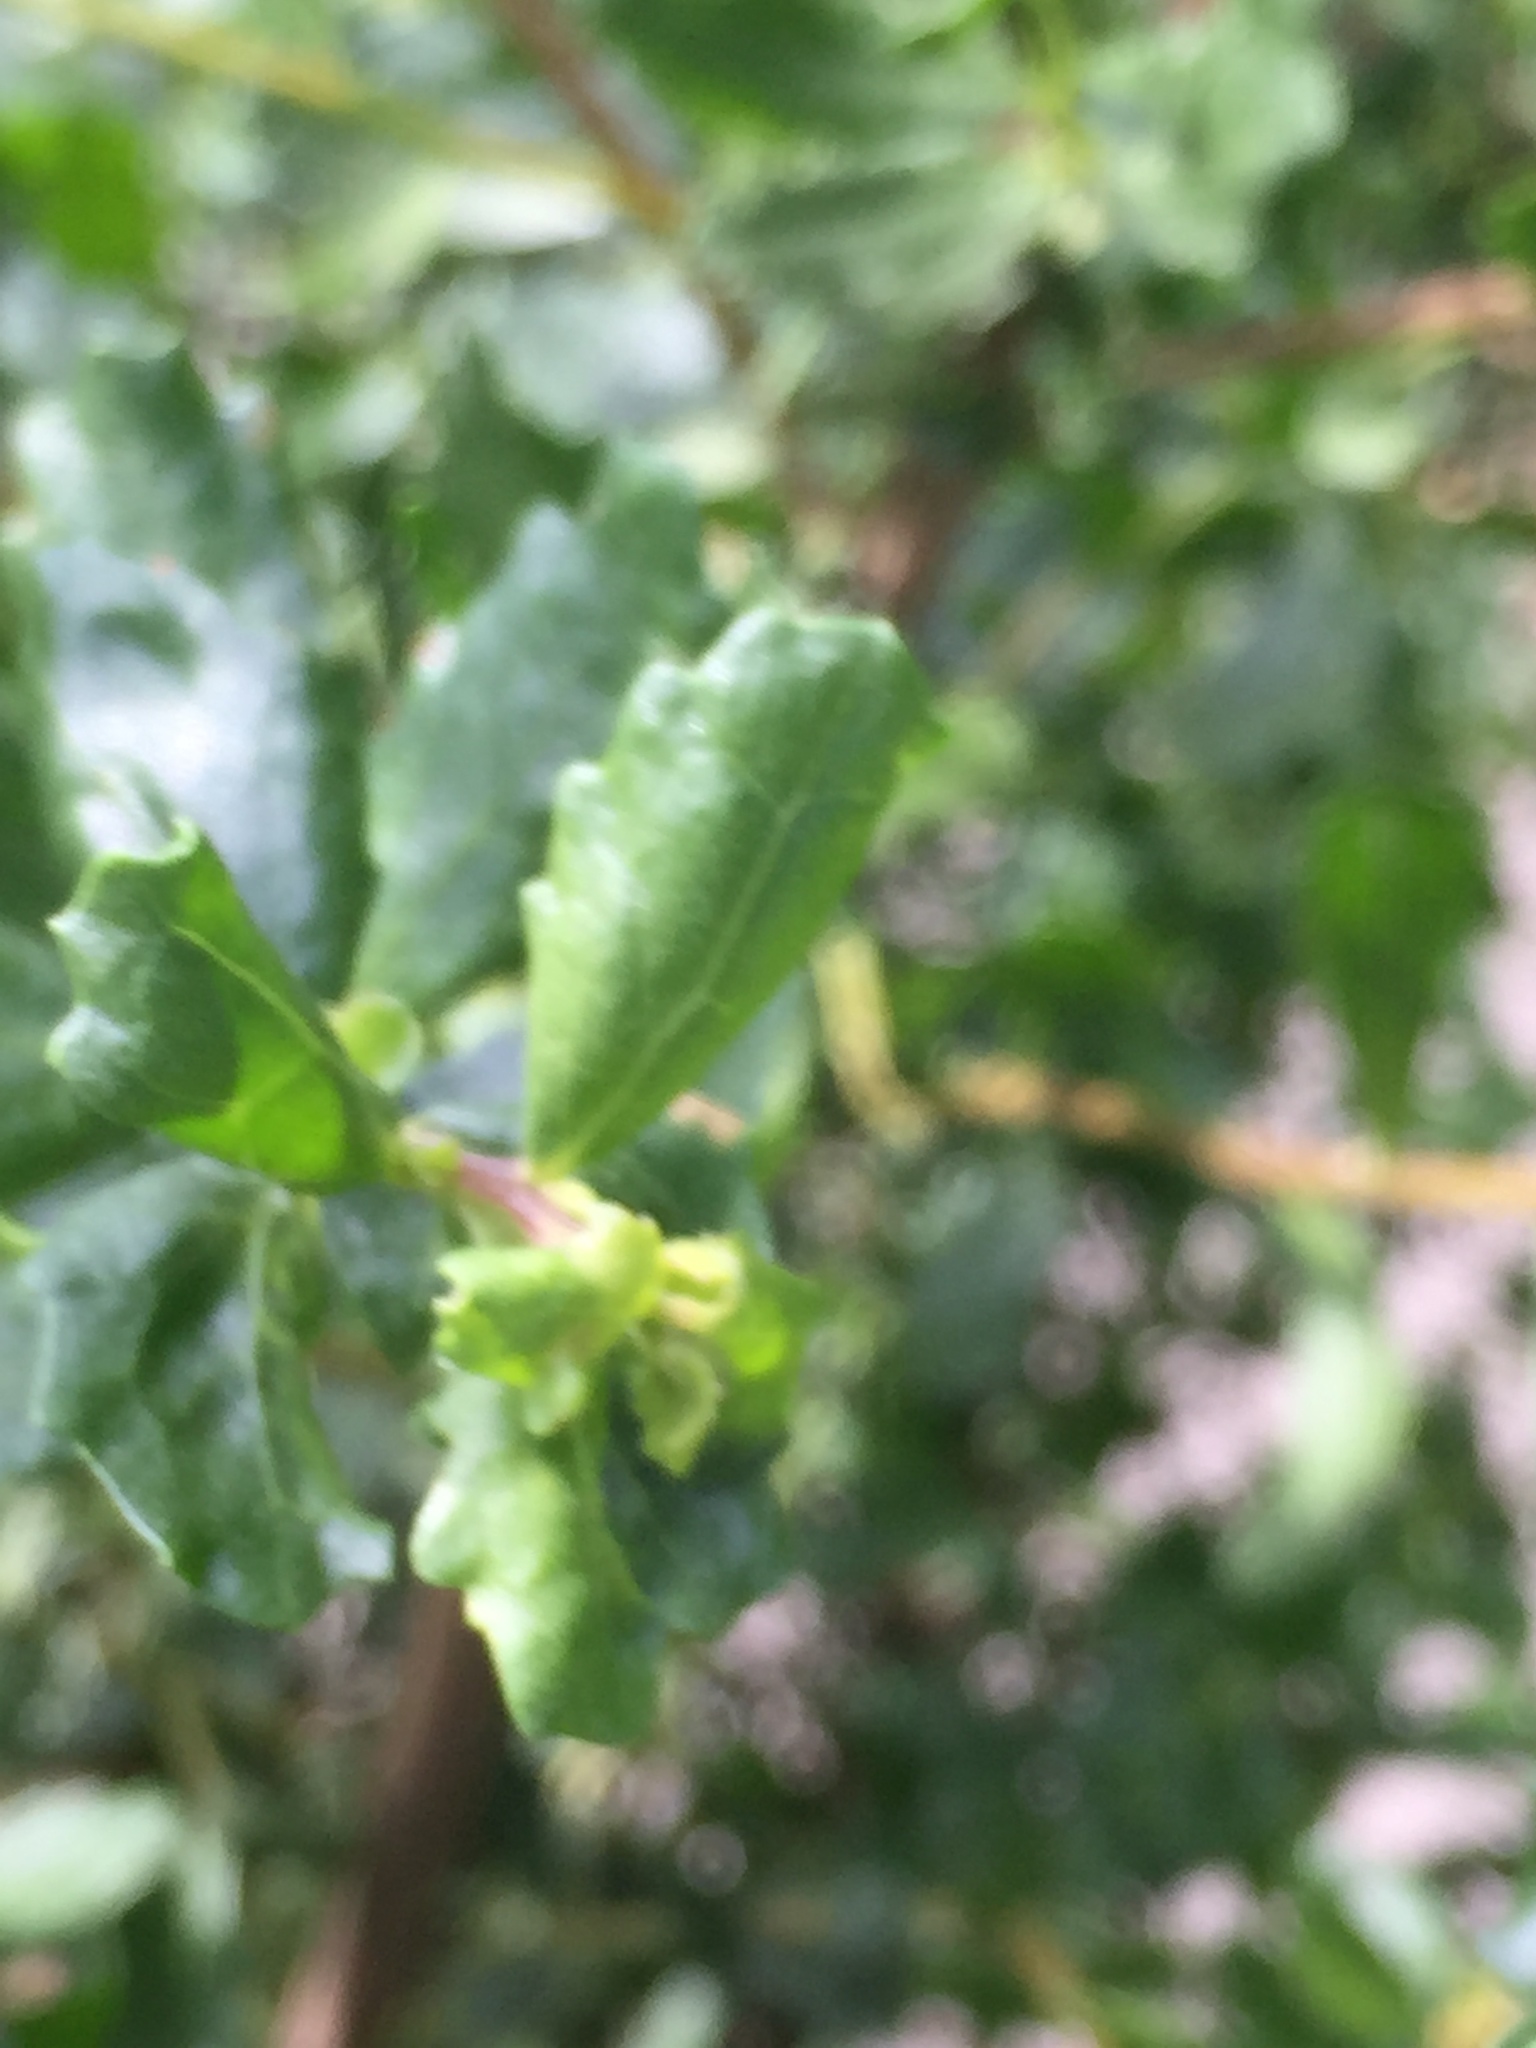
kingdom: Plantae
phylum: Tracheophyta
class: Magnoliopsida
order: Asterales
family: Asteraceae
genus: Baccharis
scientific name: Baccharis pilularis
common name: Coyotebrush
